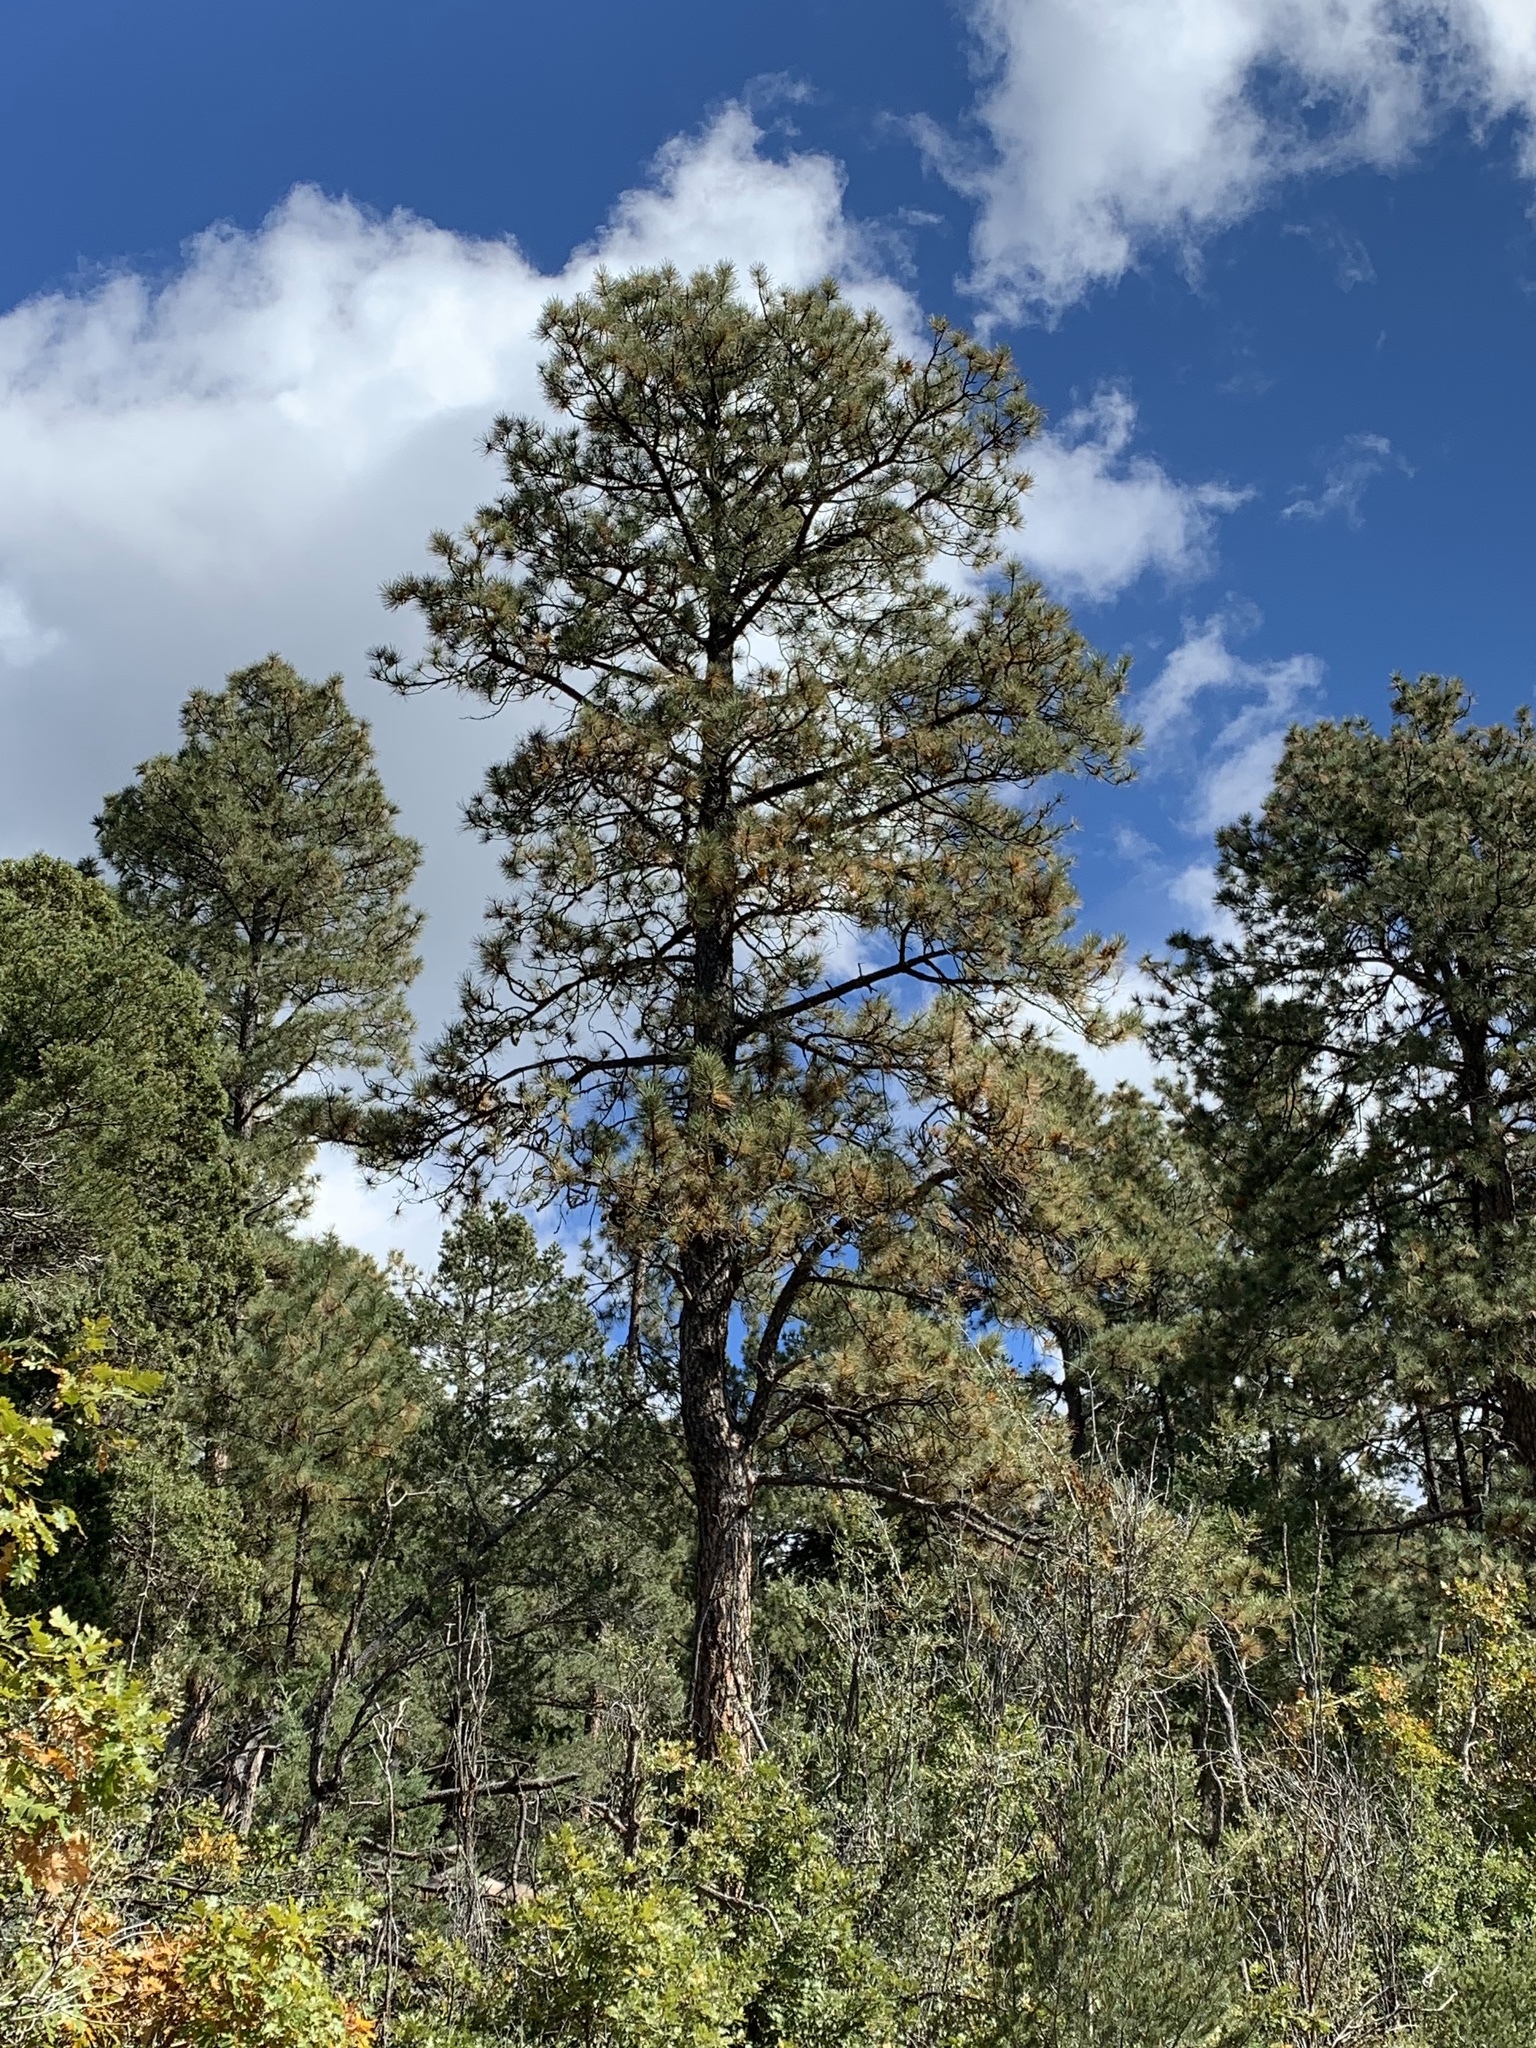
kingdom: Plantae
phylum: Tracheophyta
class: Pinopsida
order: Pinales
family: Pinaceae
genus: Pinus
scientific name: Pinus ponderosa
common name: Western yellow-pine
